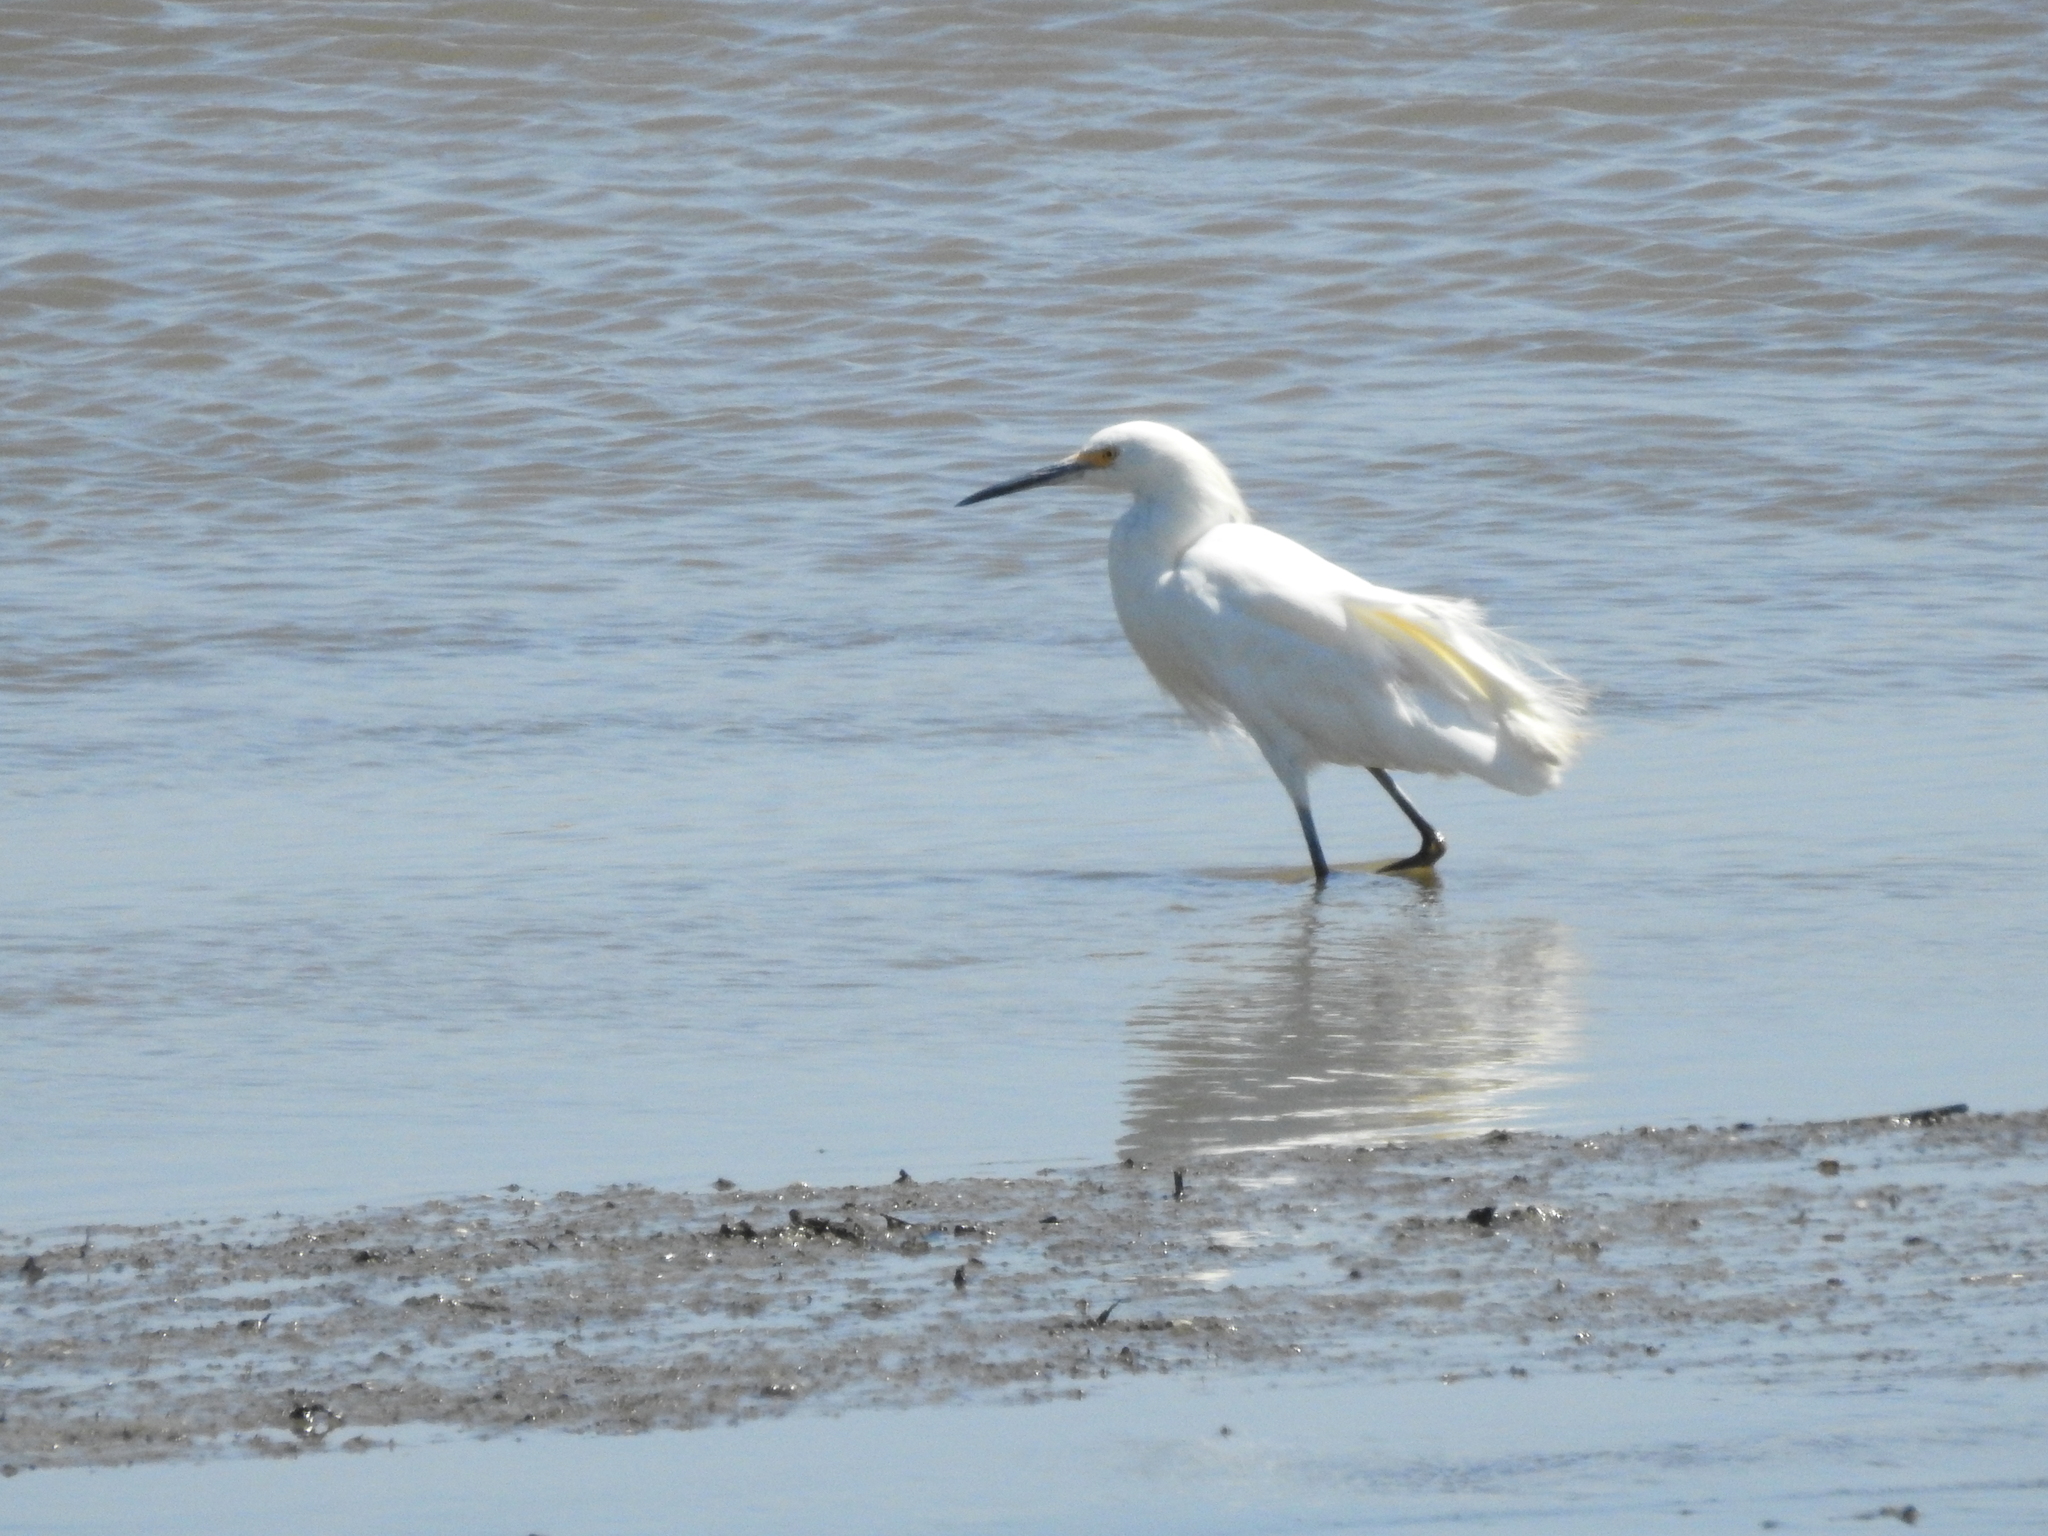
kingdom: Animalia
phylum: Chordata
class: Aves
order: Pelecaniformes
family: Ardeidae
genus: Egretta
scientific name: Egretta thula
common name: Snowy egret
